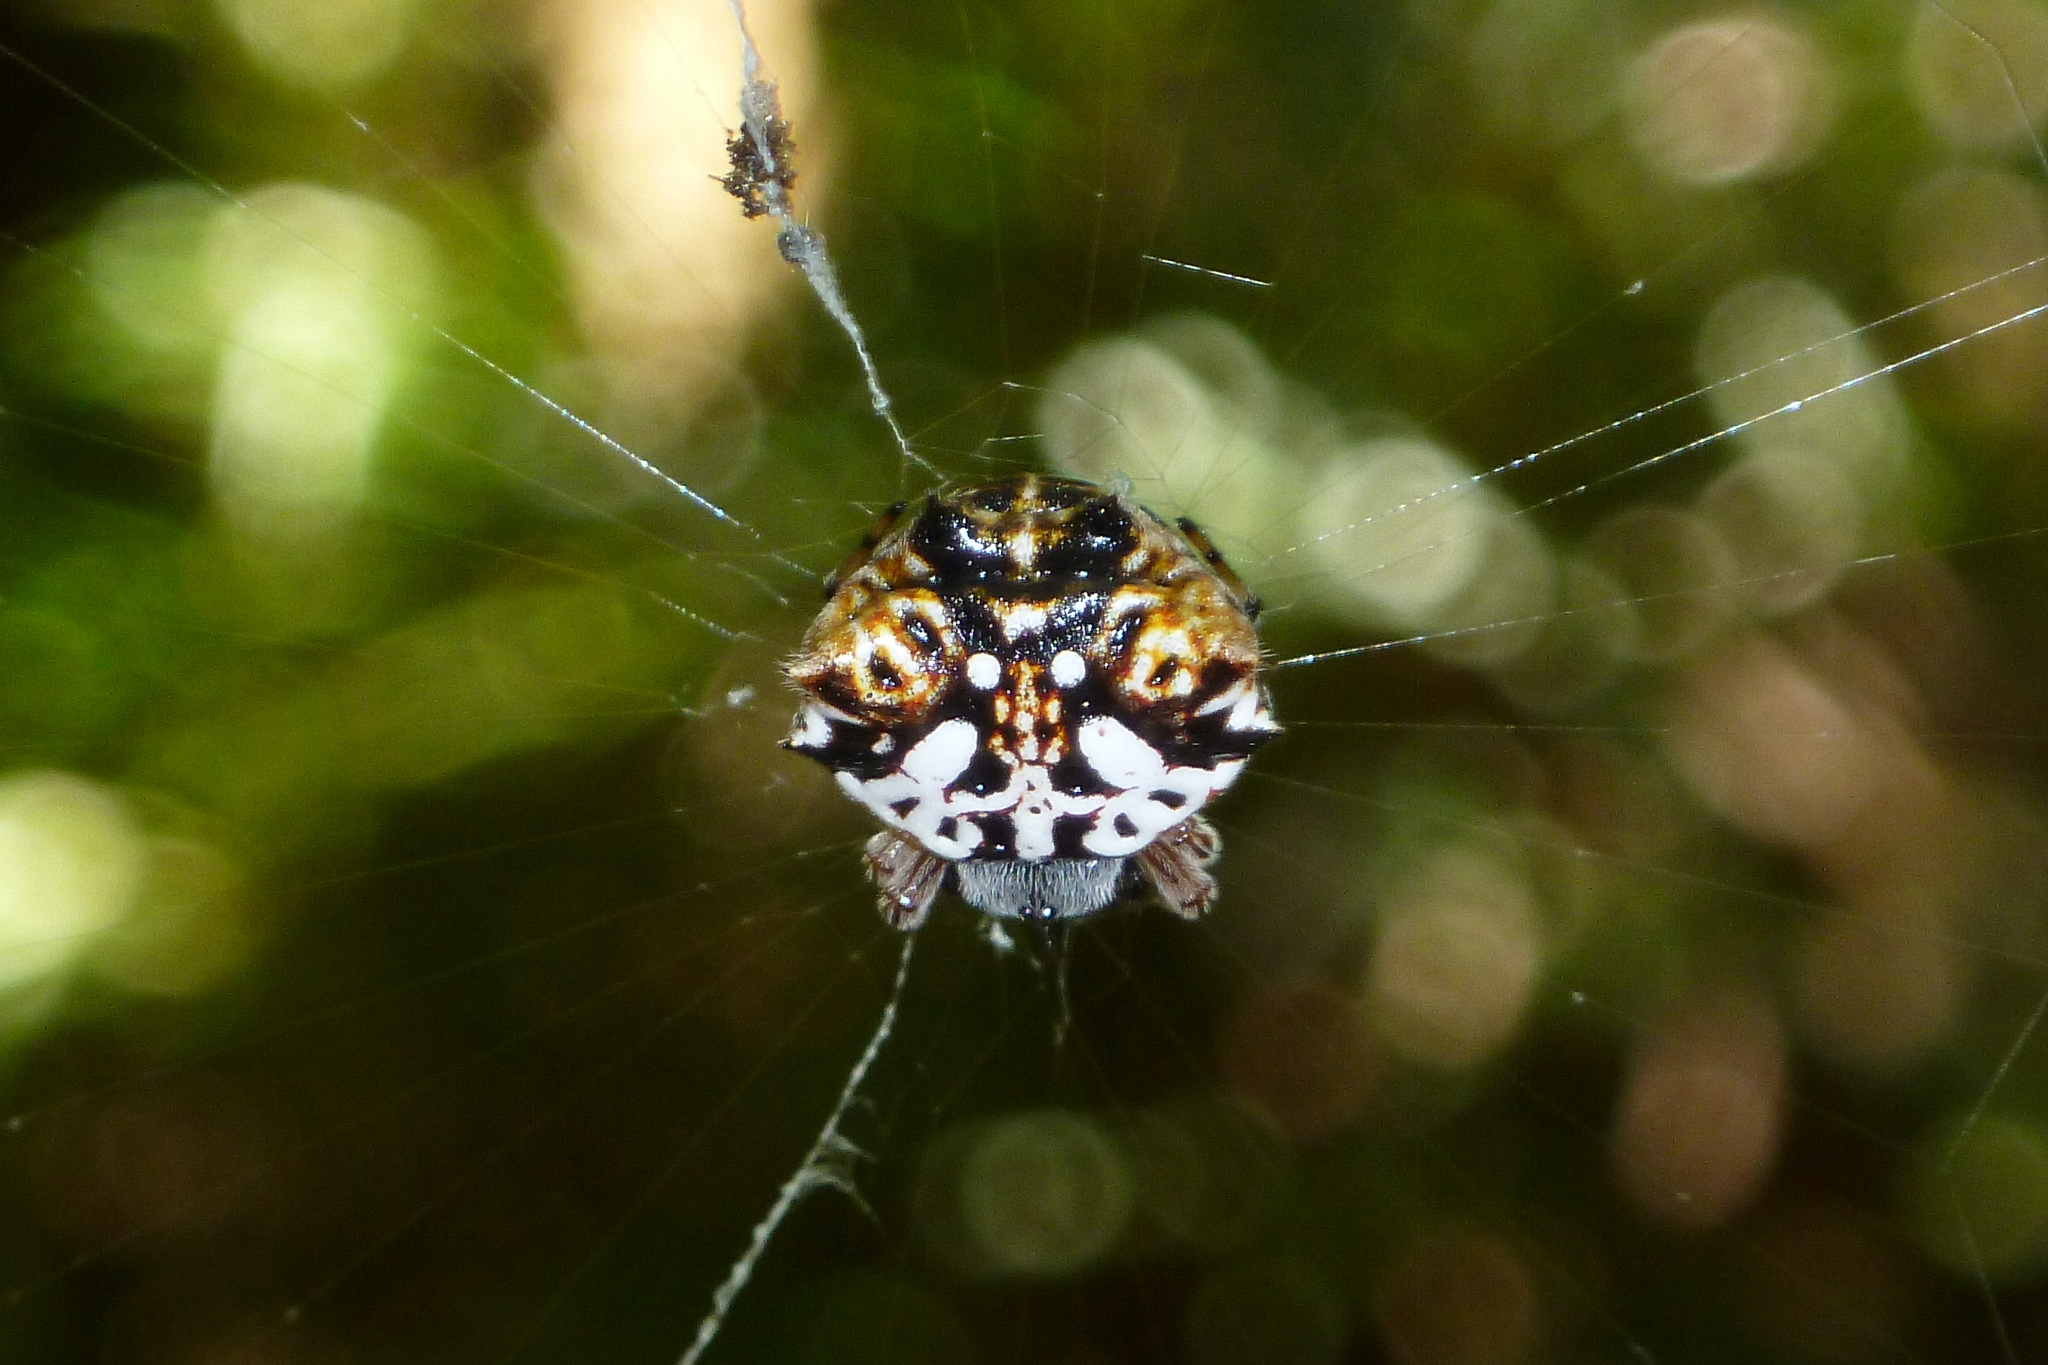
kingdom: Animalia
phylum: Arthropoda
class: Arachnida
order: Araneae
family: Araneidae
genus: Gasteracantha
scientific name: Gasteracantha sacerdotalis
